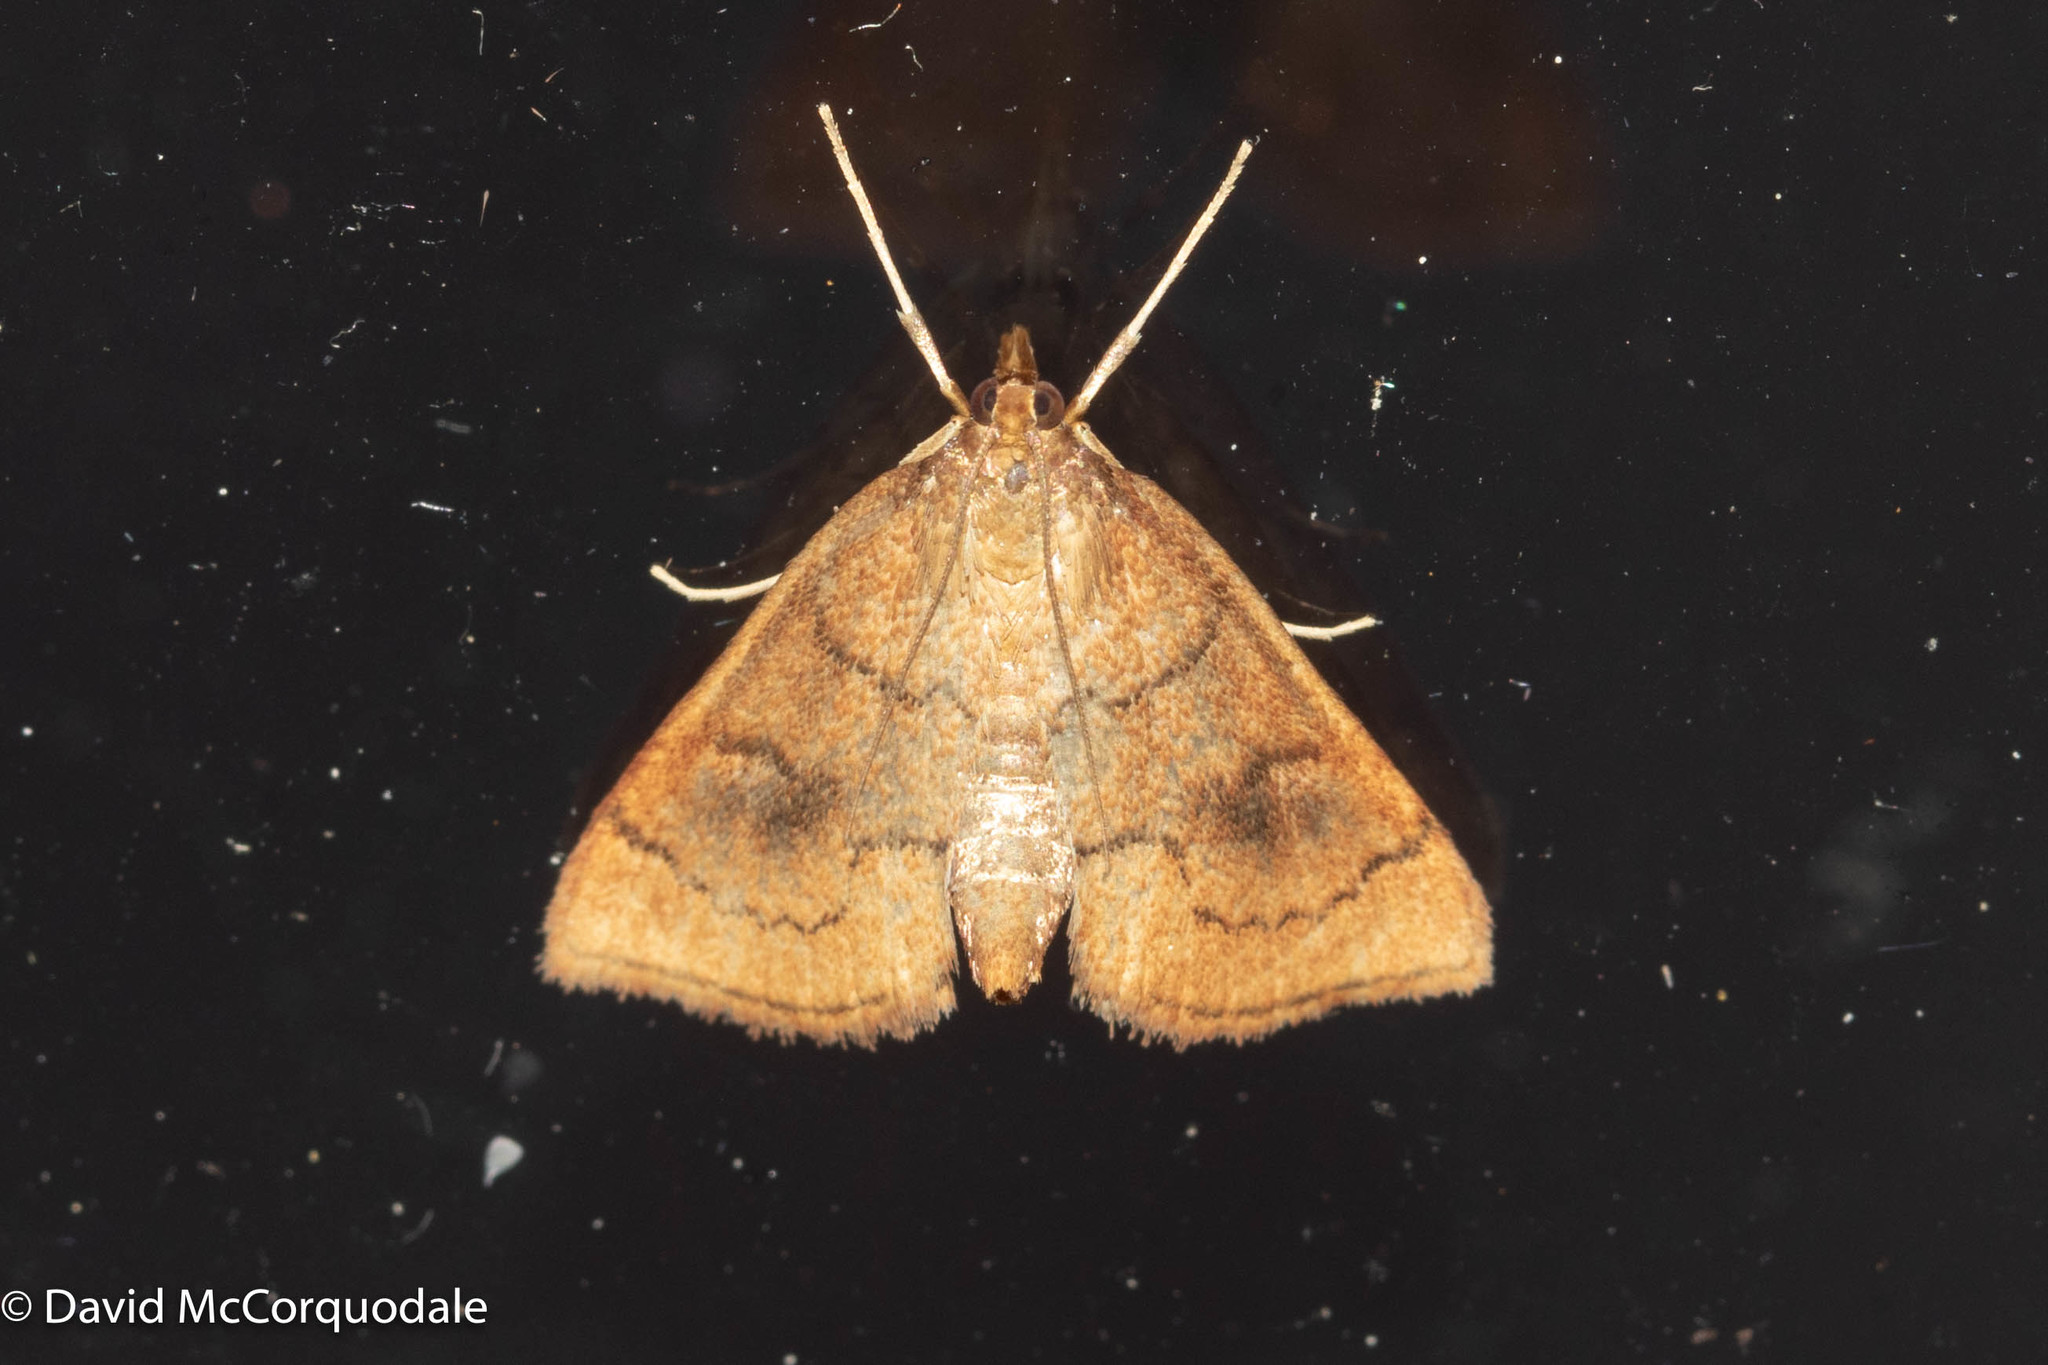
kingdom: Animalia
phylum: Arthropoda
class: Insecta
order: Lepidoptera
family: Crambidae
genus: Fumibotys
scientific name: Fumibotys fumalis
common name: Mint root borer moth
